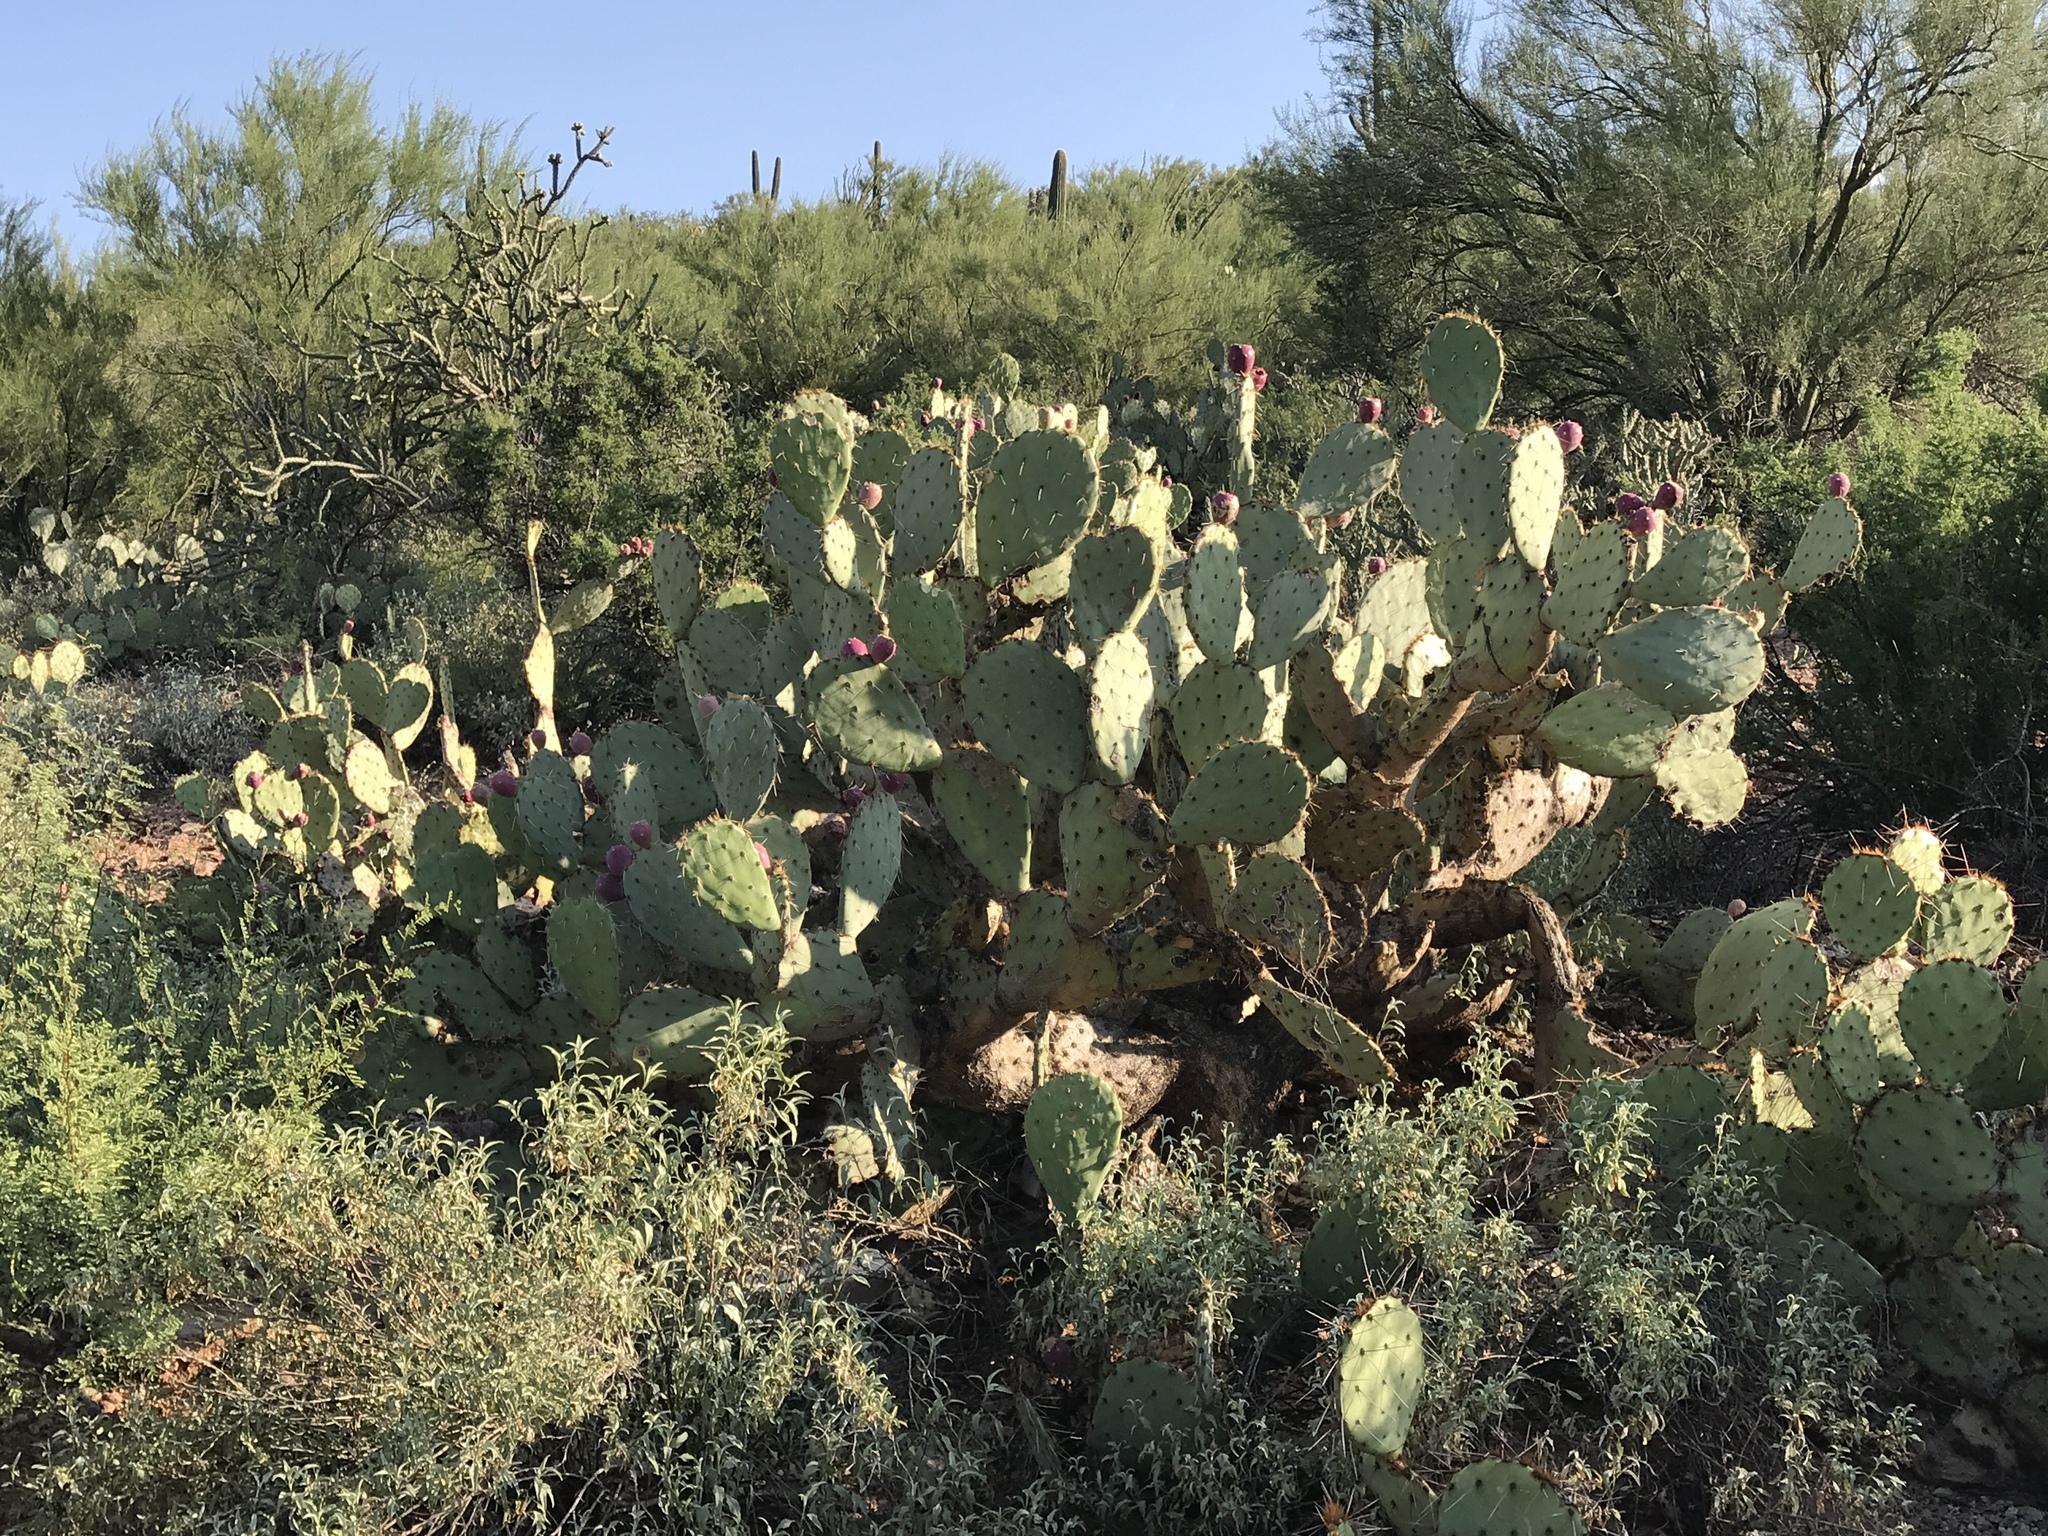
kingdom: Plantae
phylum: Tracheophyta
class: Magnoliopsida
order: Caryophyllales
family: Cactaceae
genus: Opuntia
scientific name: Opuntia engelmannii
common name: Cactus-apple
